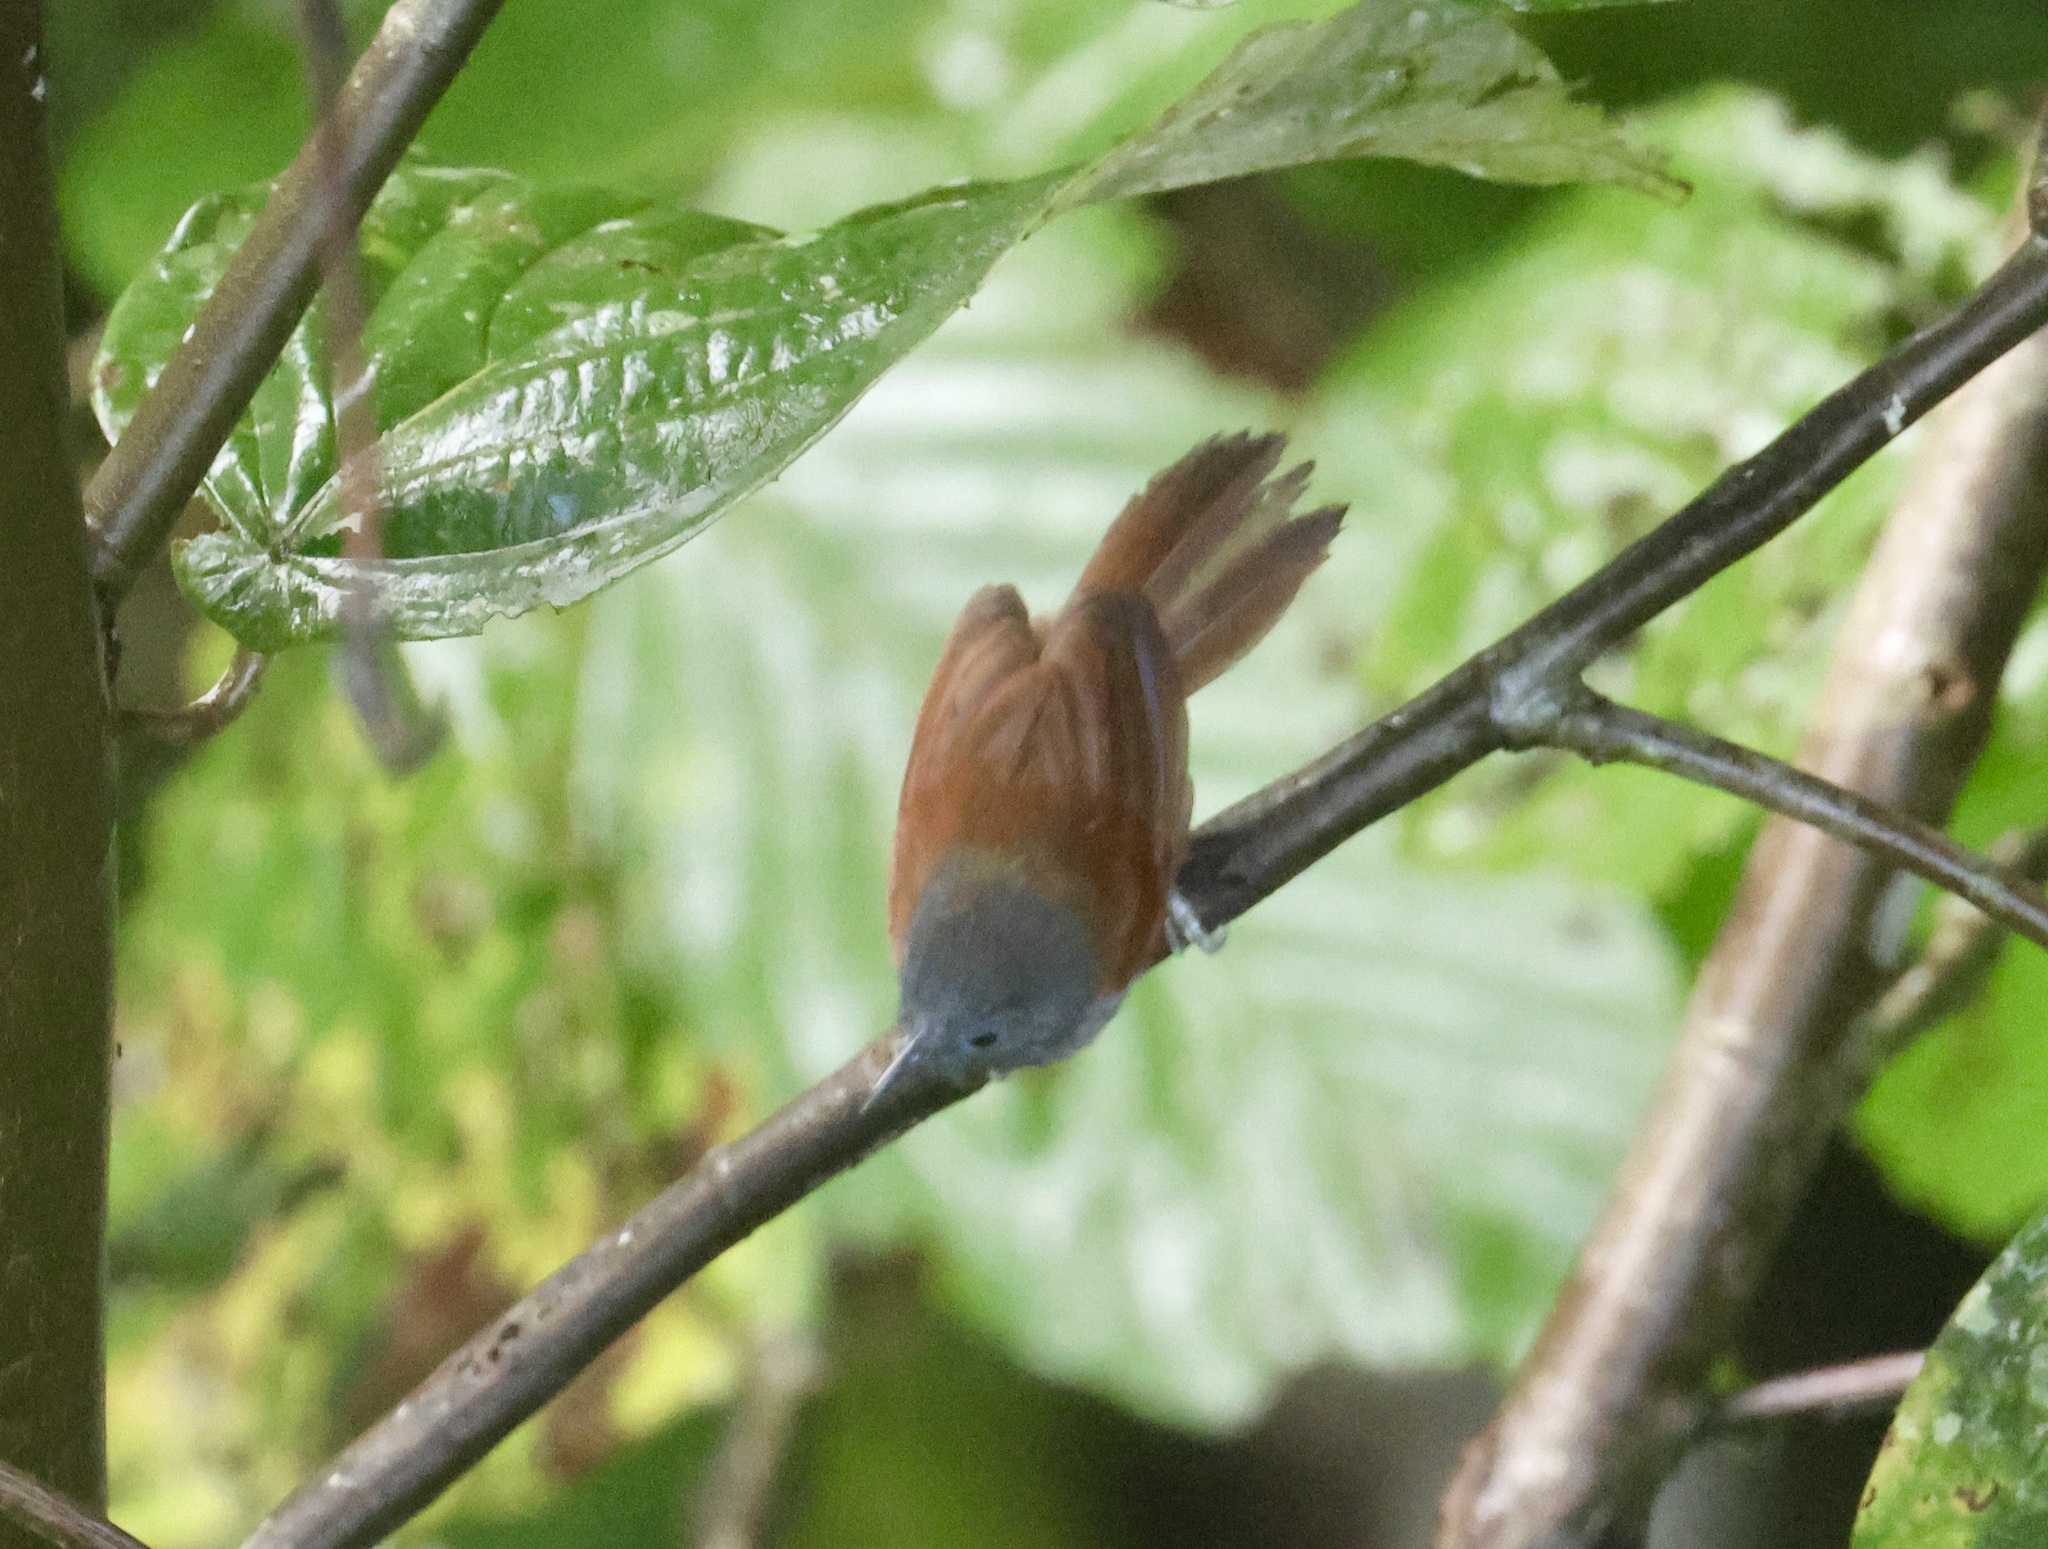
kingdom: Animalia
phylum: Chordata
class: Aves
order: Passeriformes
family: Timaliidae
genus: Stachyris
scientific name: Stachyris erythroptera
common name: Chestnut-winged babbler
